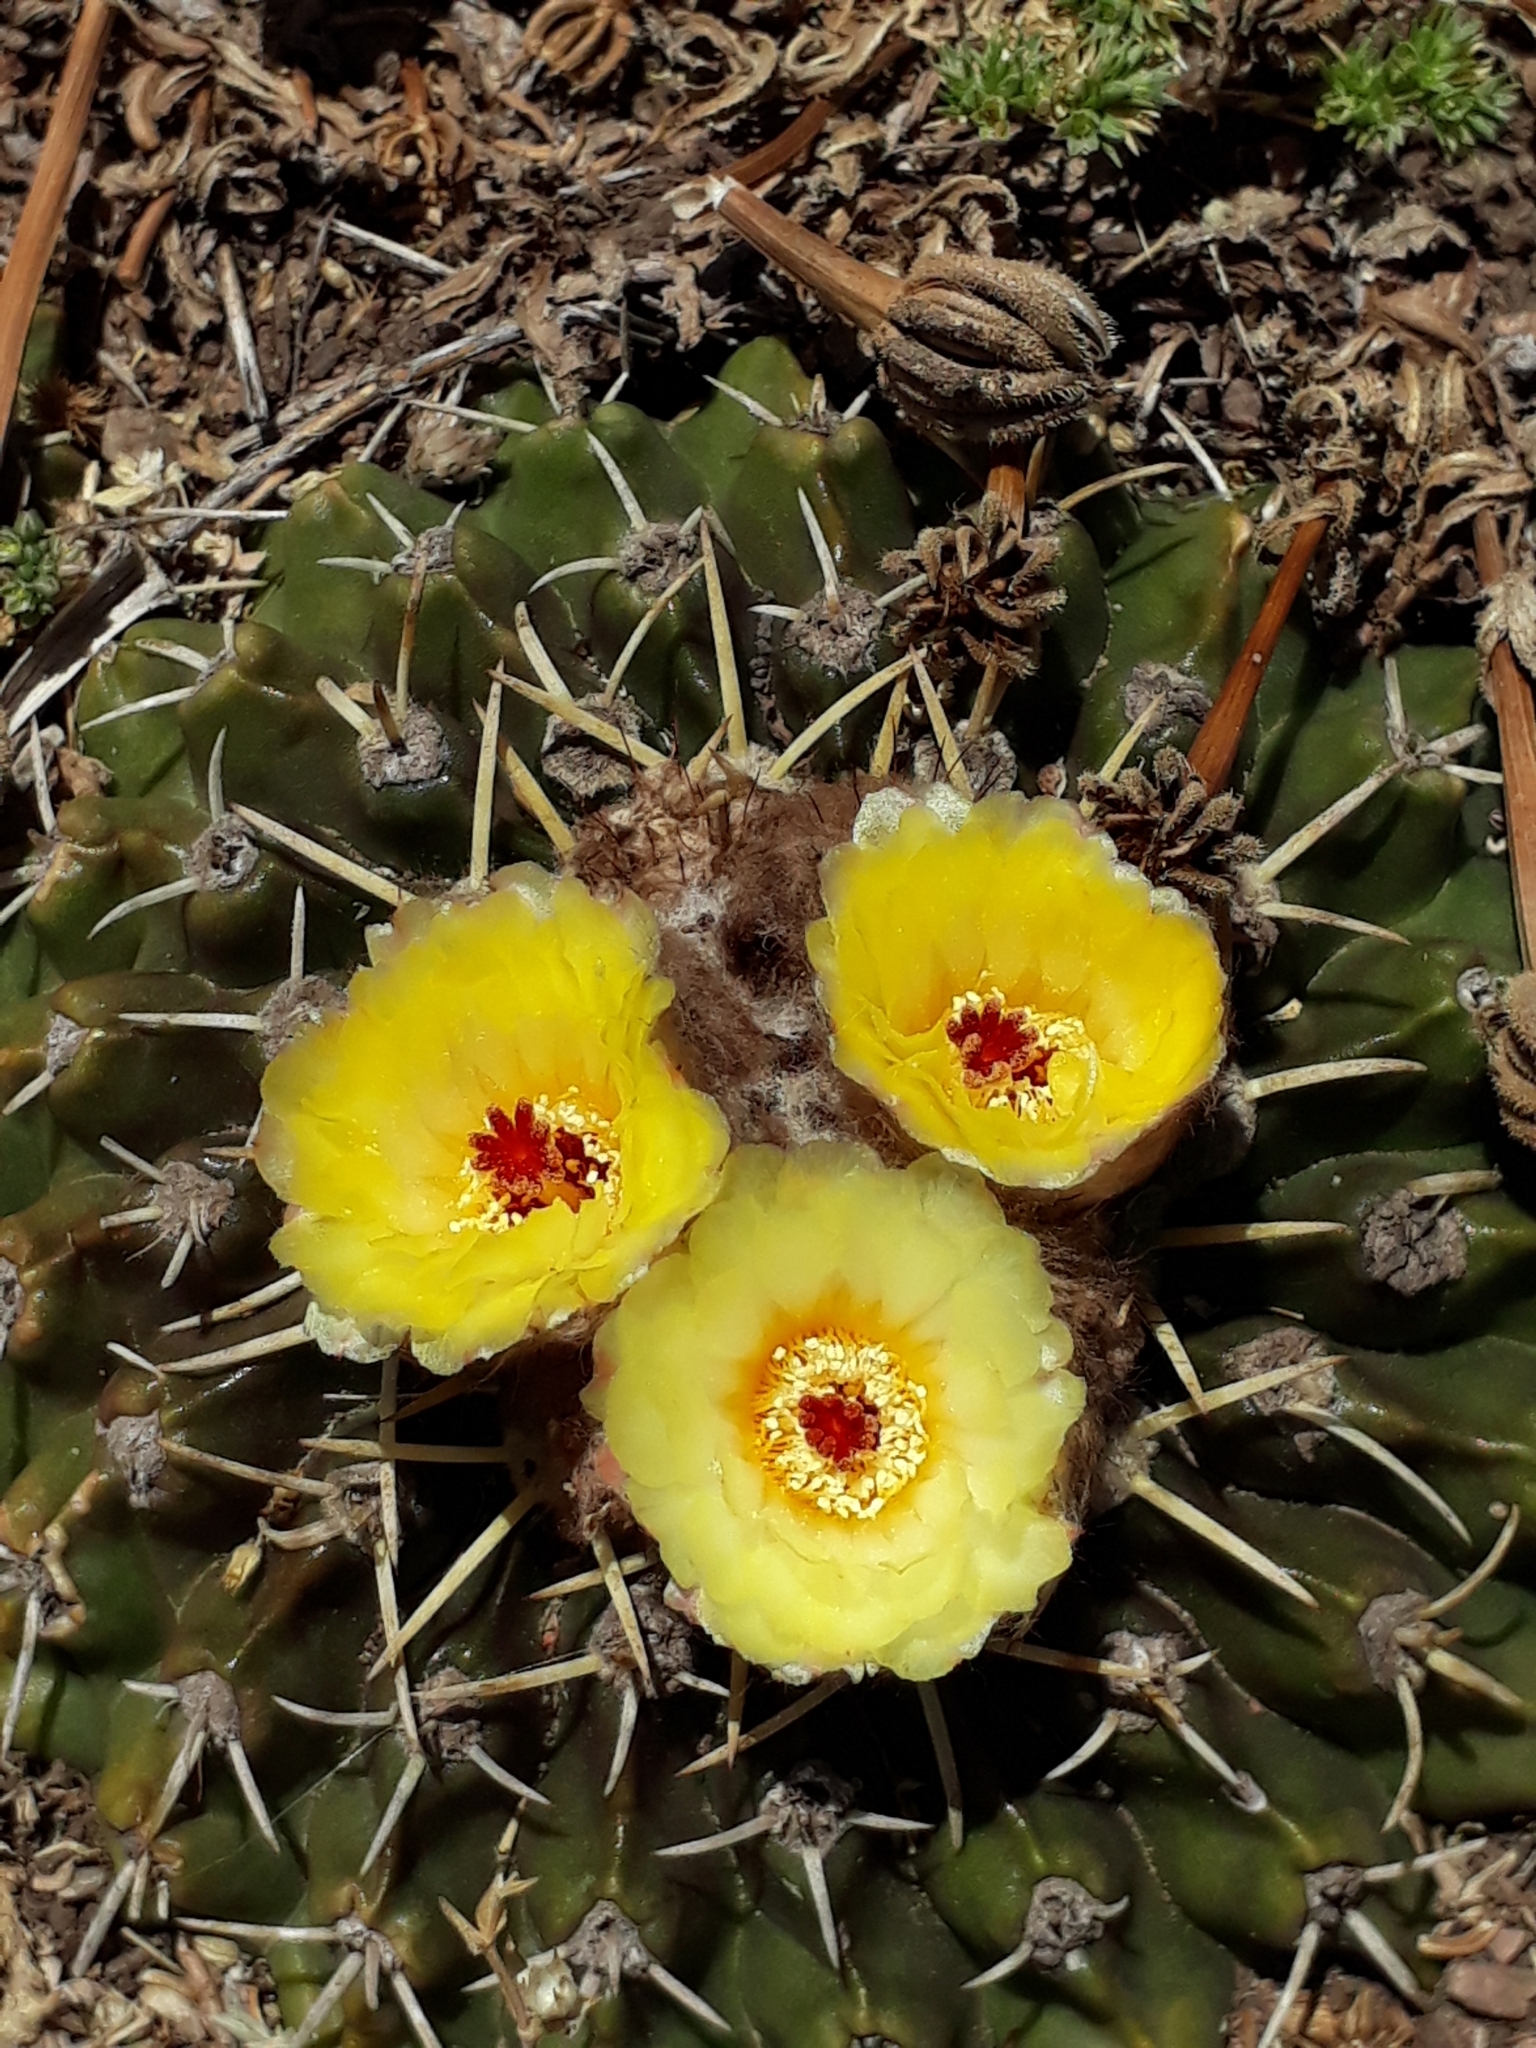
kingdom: Plantae
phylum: Tracheophyta
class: Magnoliopsida
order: Caryophyllales
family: Cactaceae
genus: Parodia
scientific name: Parodia erinacea
